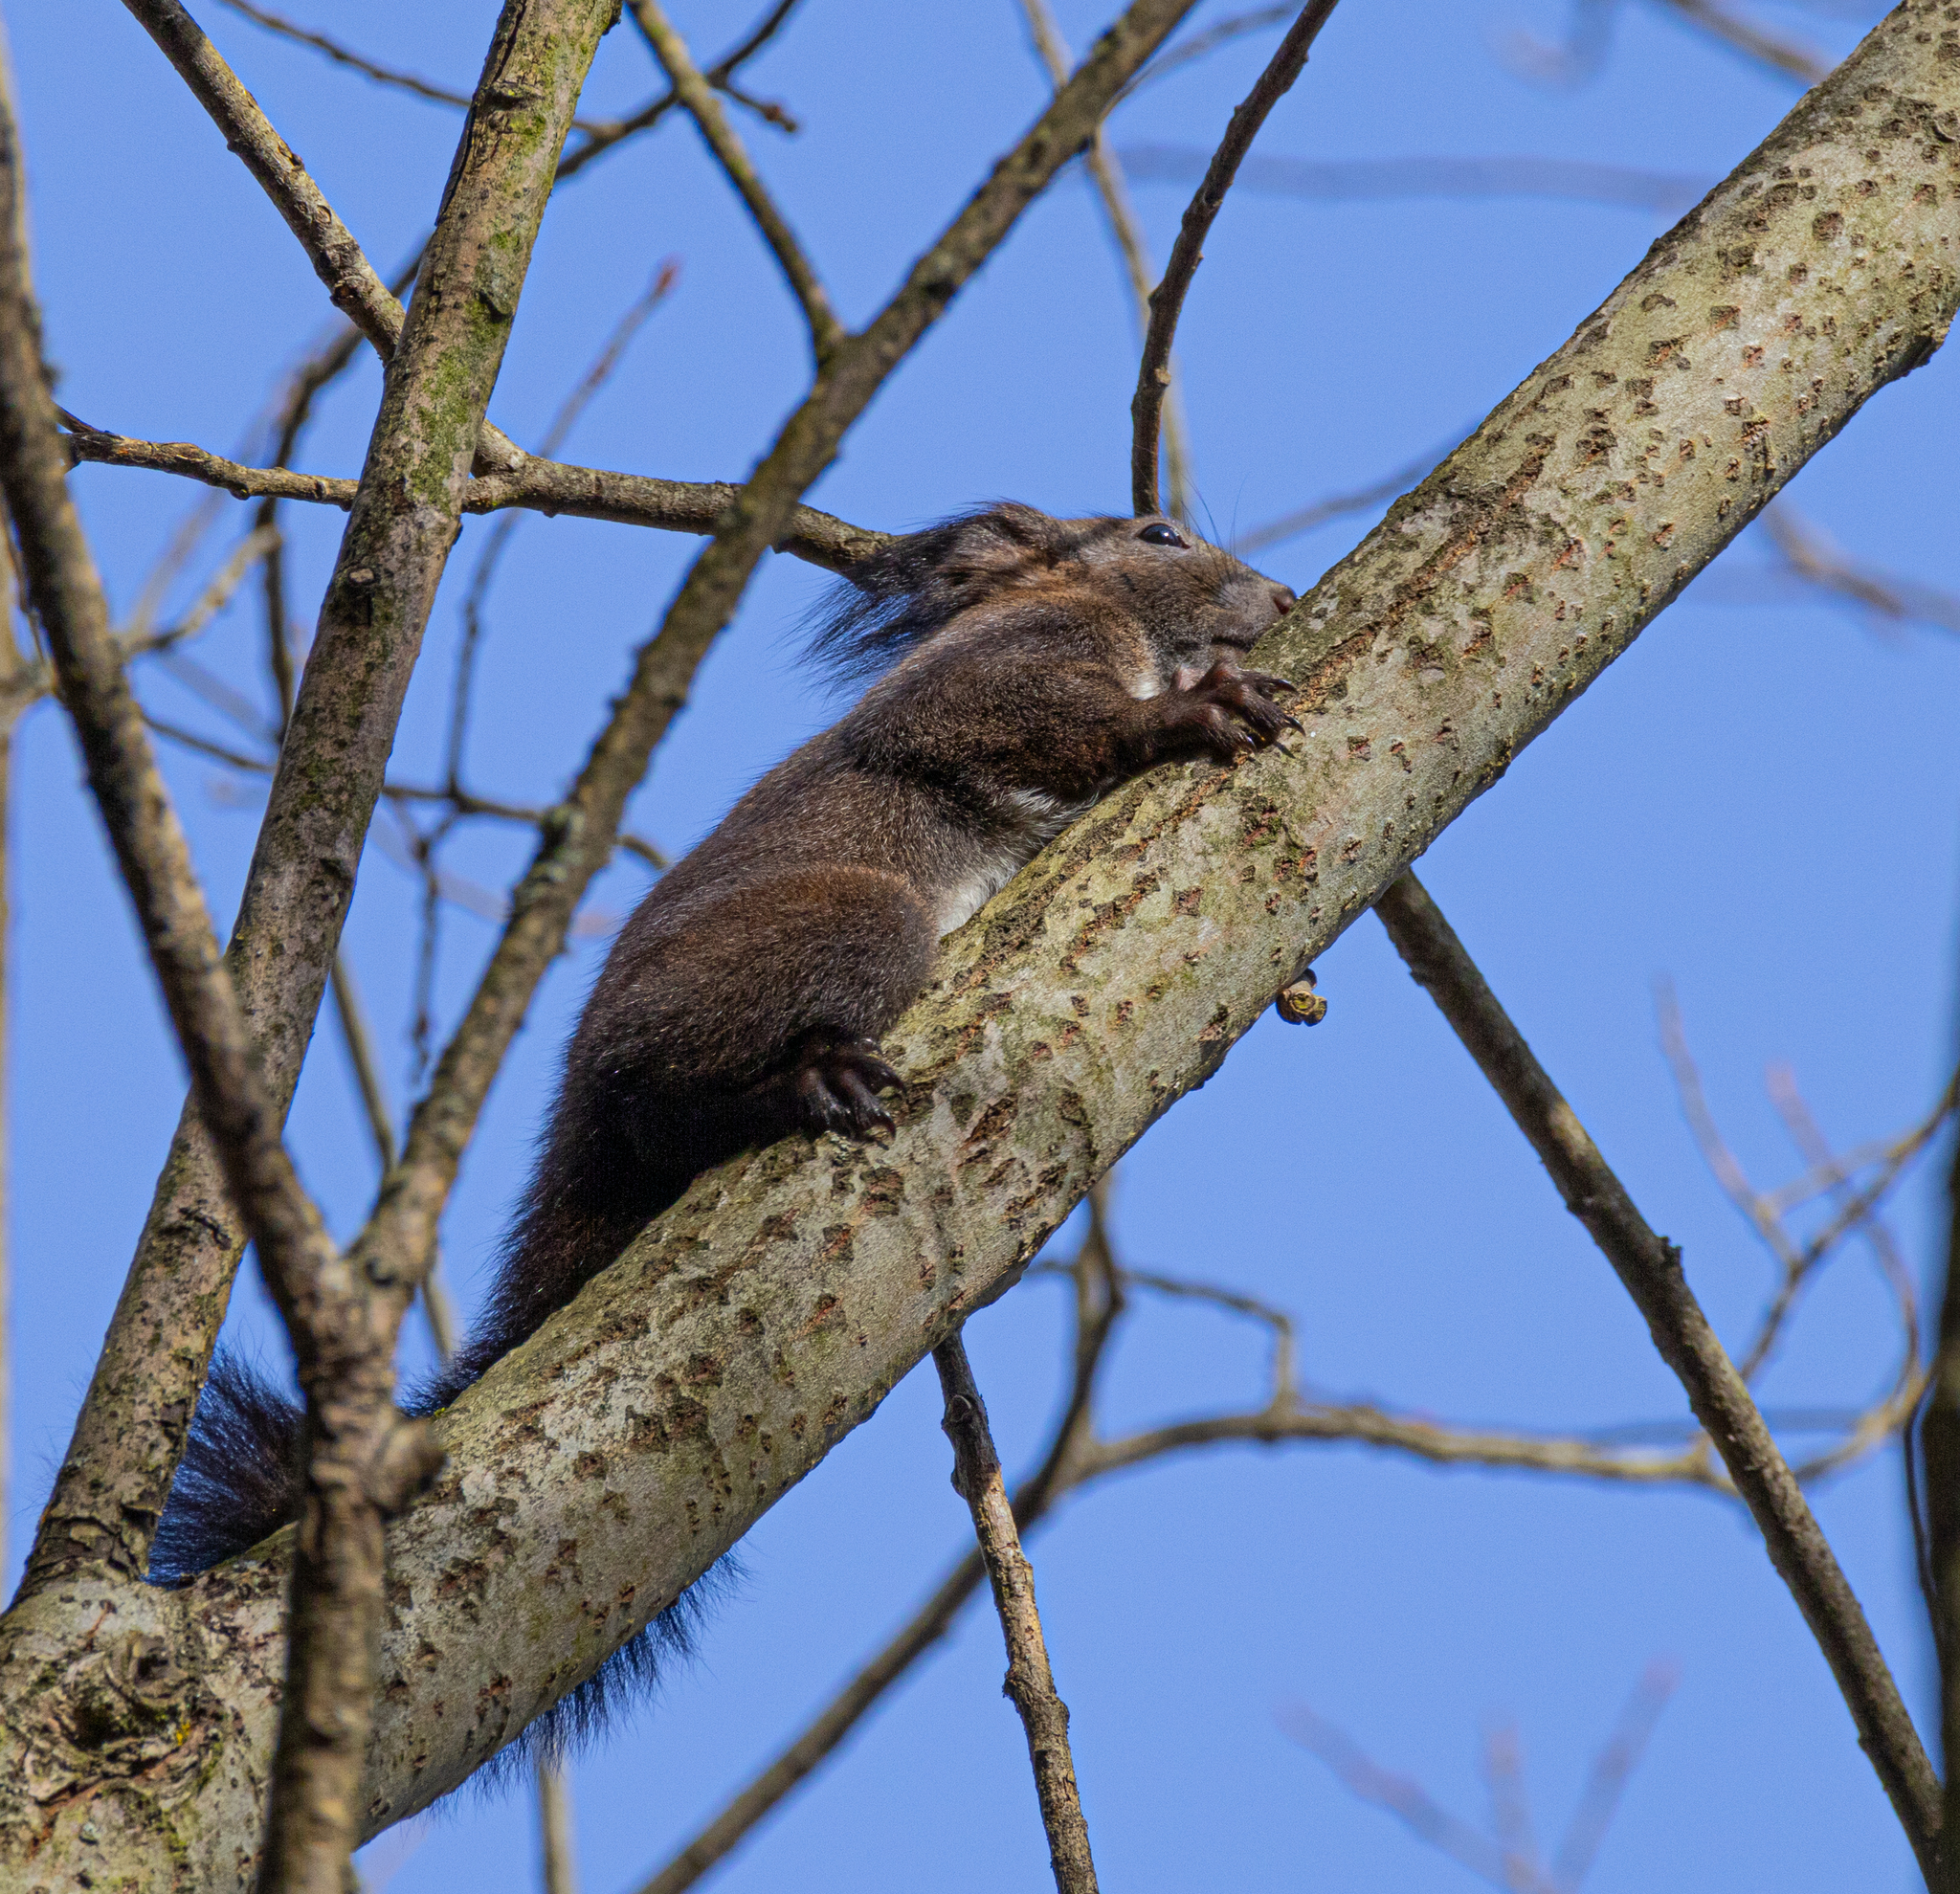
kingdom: Animalia
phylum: Chordata
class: Mammalia
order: Rodentia
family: Sciuridae
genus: Sciurus
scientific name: Sciurus vulgaris
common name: Eurasian red squirrel
